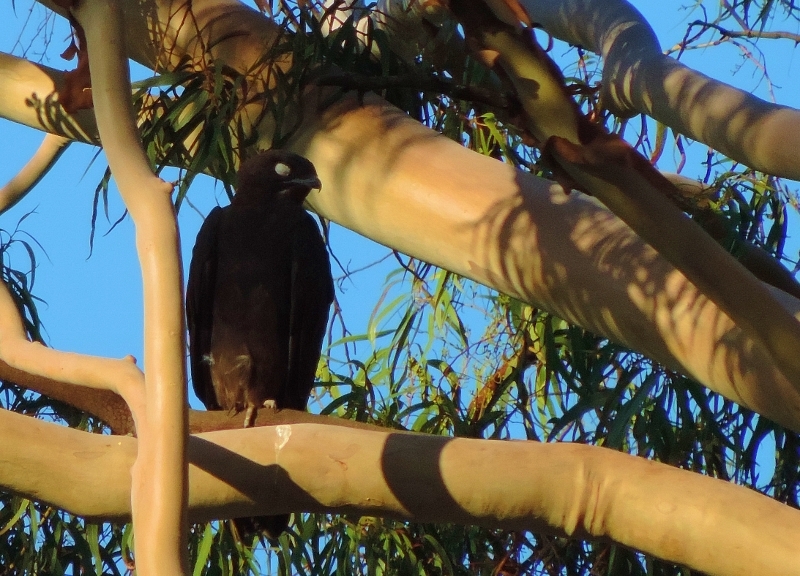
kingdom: Animalia
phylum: Chordata
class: Aves
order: Accipitriformes
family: Accipitridae
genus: Macheiramphus
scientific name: Macheiramphus alcinus
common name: Bat hawk
